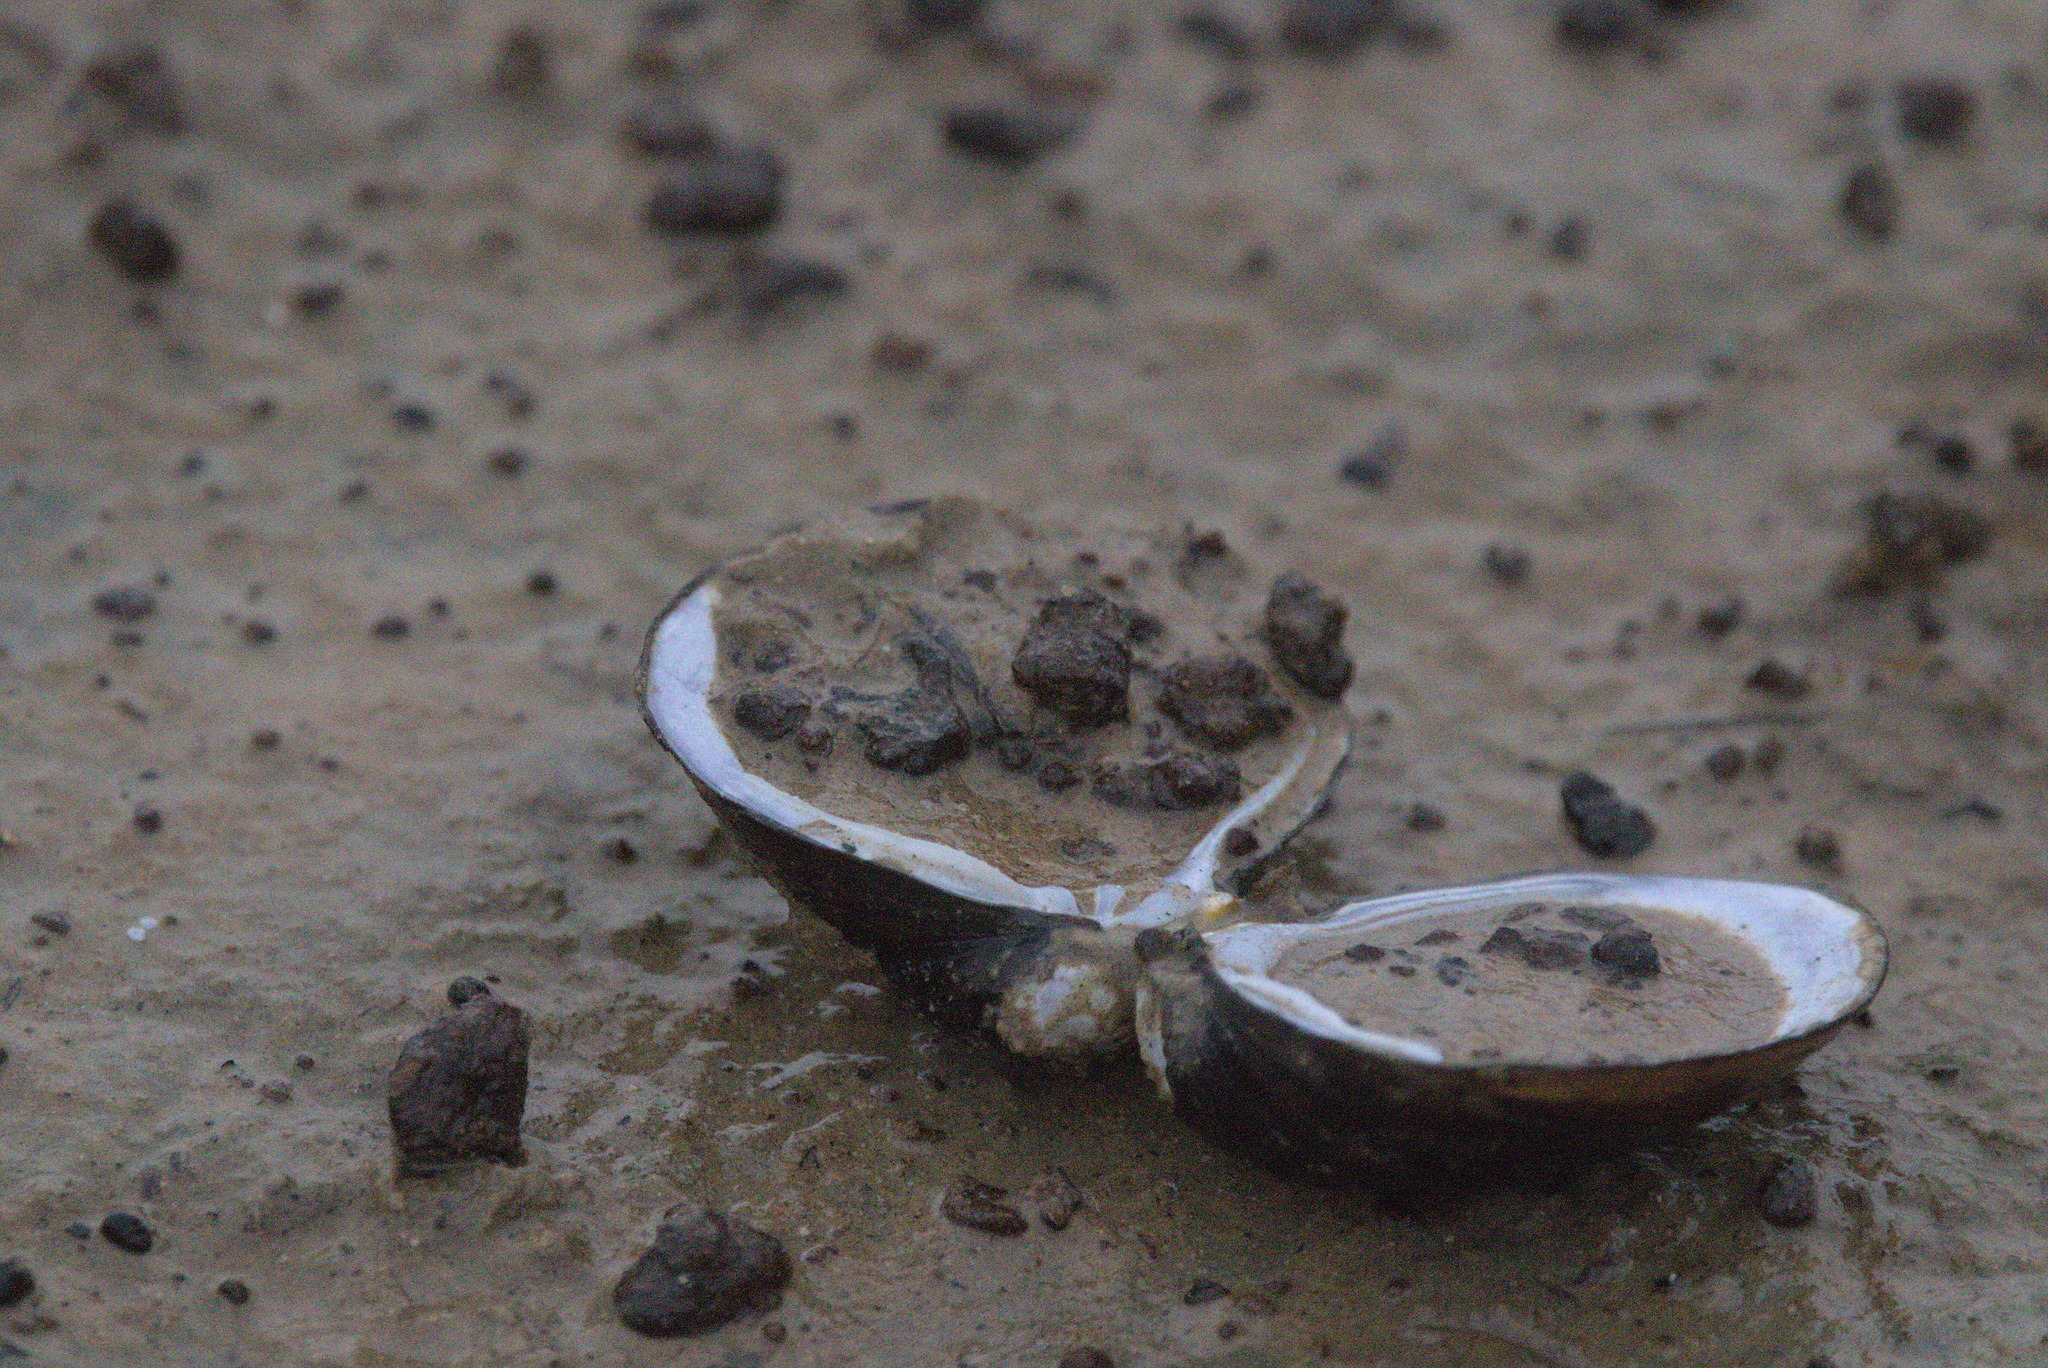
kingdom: Animalia
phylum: Mollusca
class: Bivalvia
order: Venerida
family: Cyrenidae
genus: Corbicula
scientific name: Corbicula fluminea
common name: Asian clam
